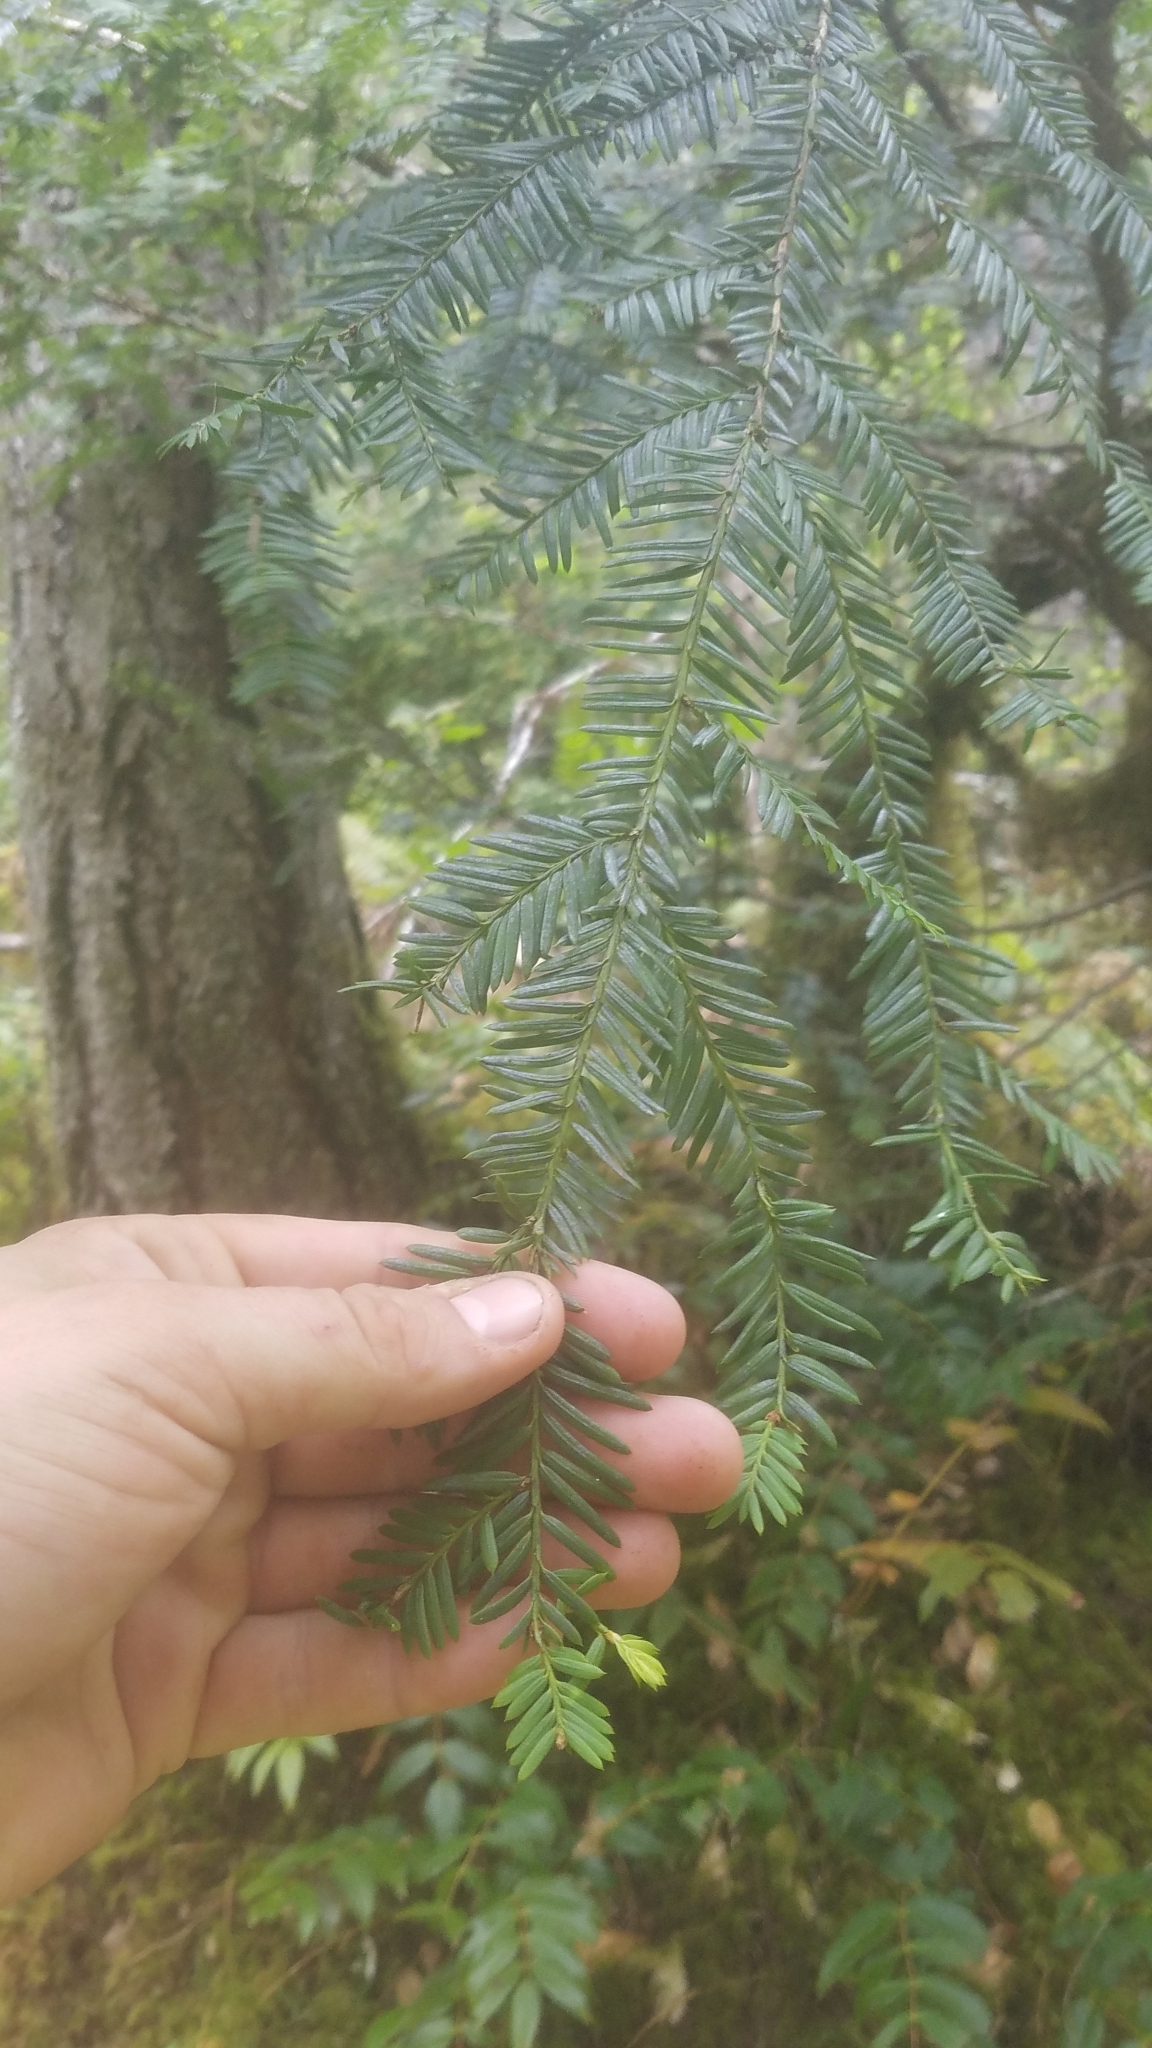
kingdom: Plantae
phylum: Tracheophyta
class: Pinopsida
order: Pinales
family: Taxaceae
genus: Taxus
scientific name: Taxus brevifolia
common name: Pacific yew
